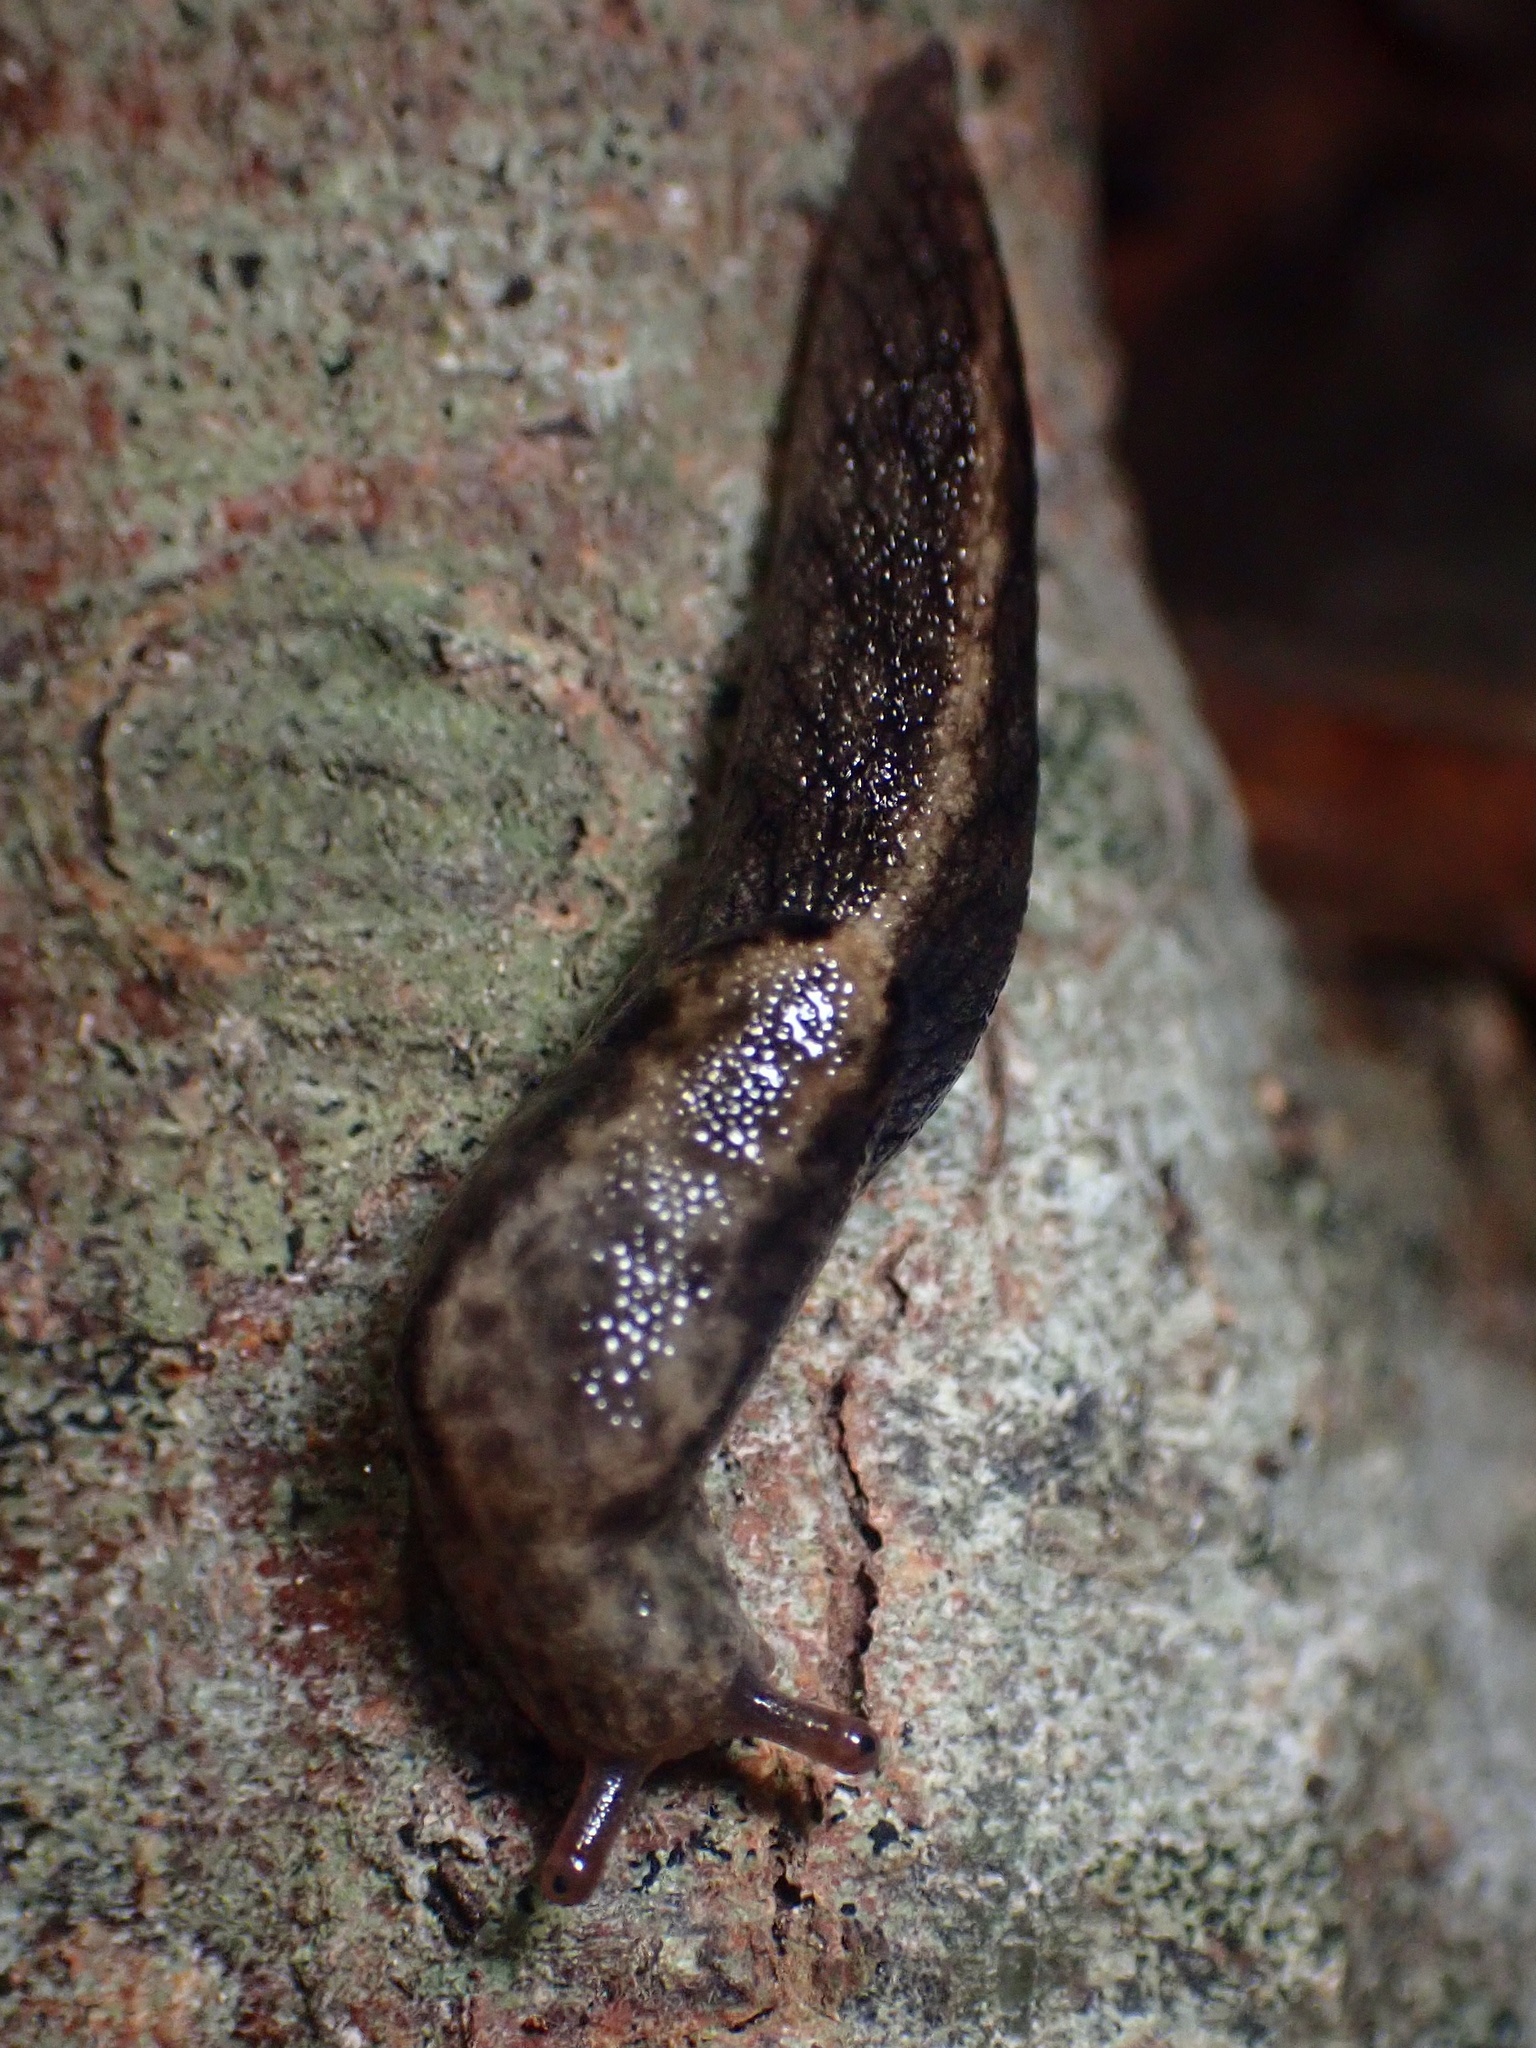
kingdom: Animalia
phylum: Mollusca
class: Gastropoda
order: Stylommatophora
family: Ariolimacidae
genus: Prophysaon
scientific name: Prophysaon andersonii
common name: Reticulate taildropper
